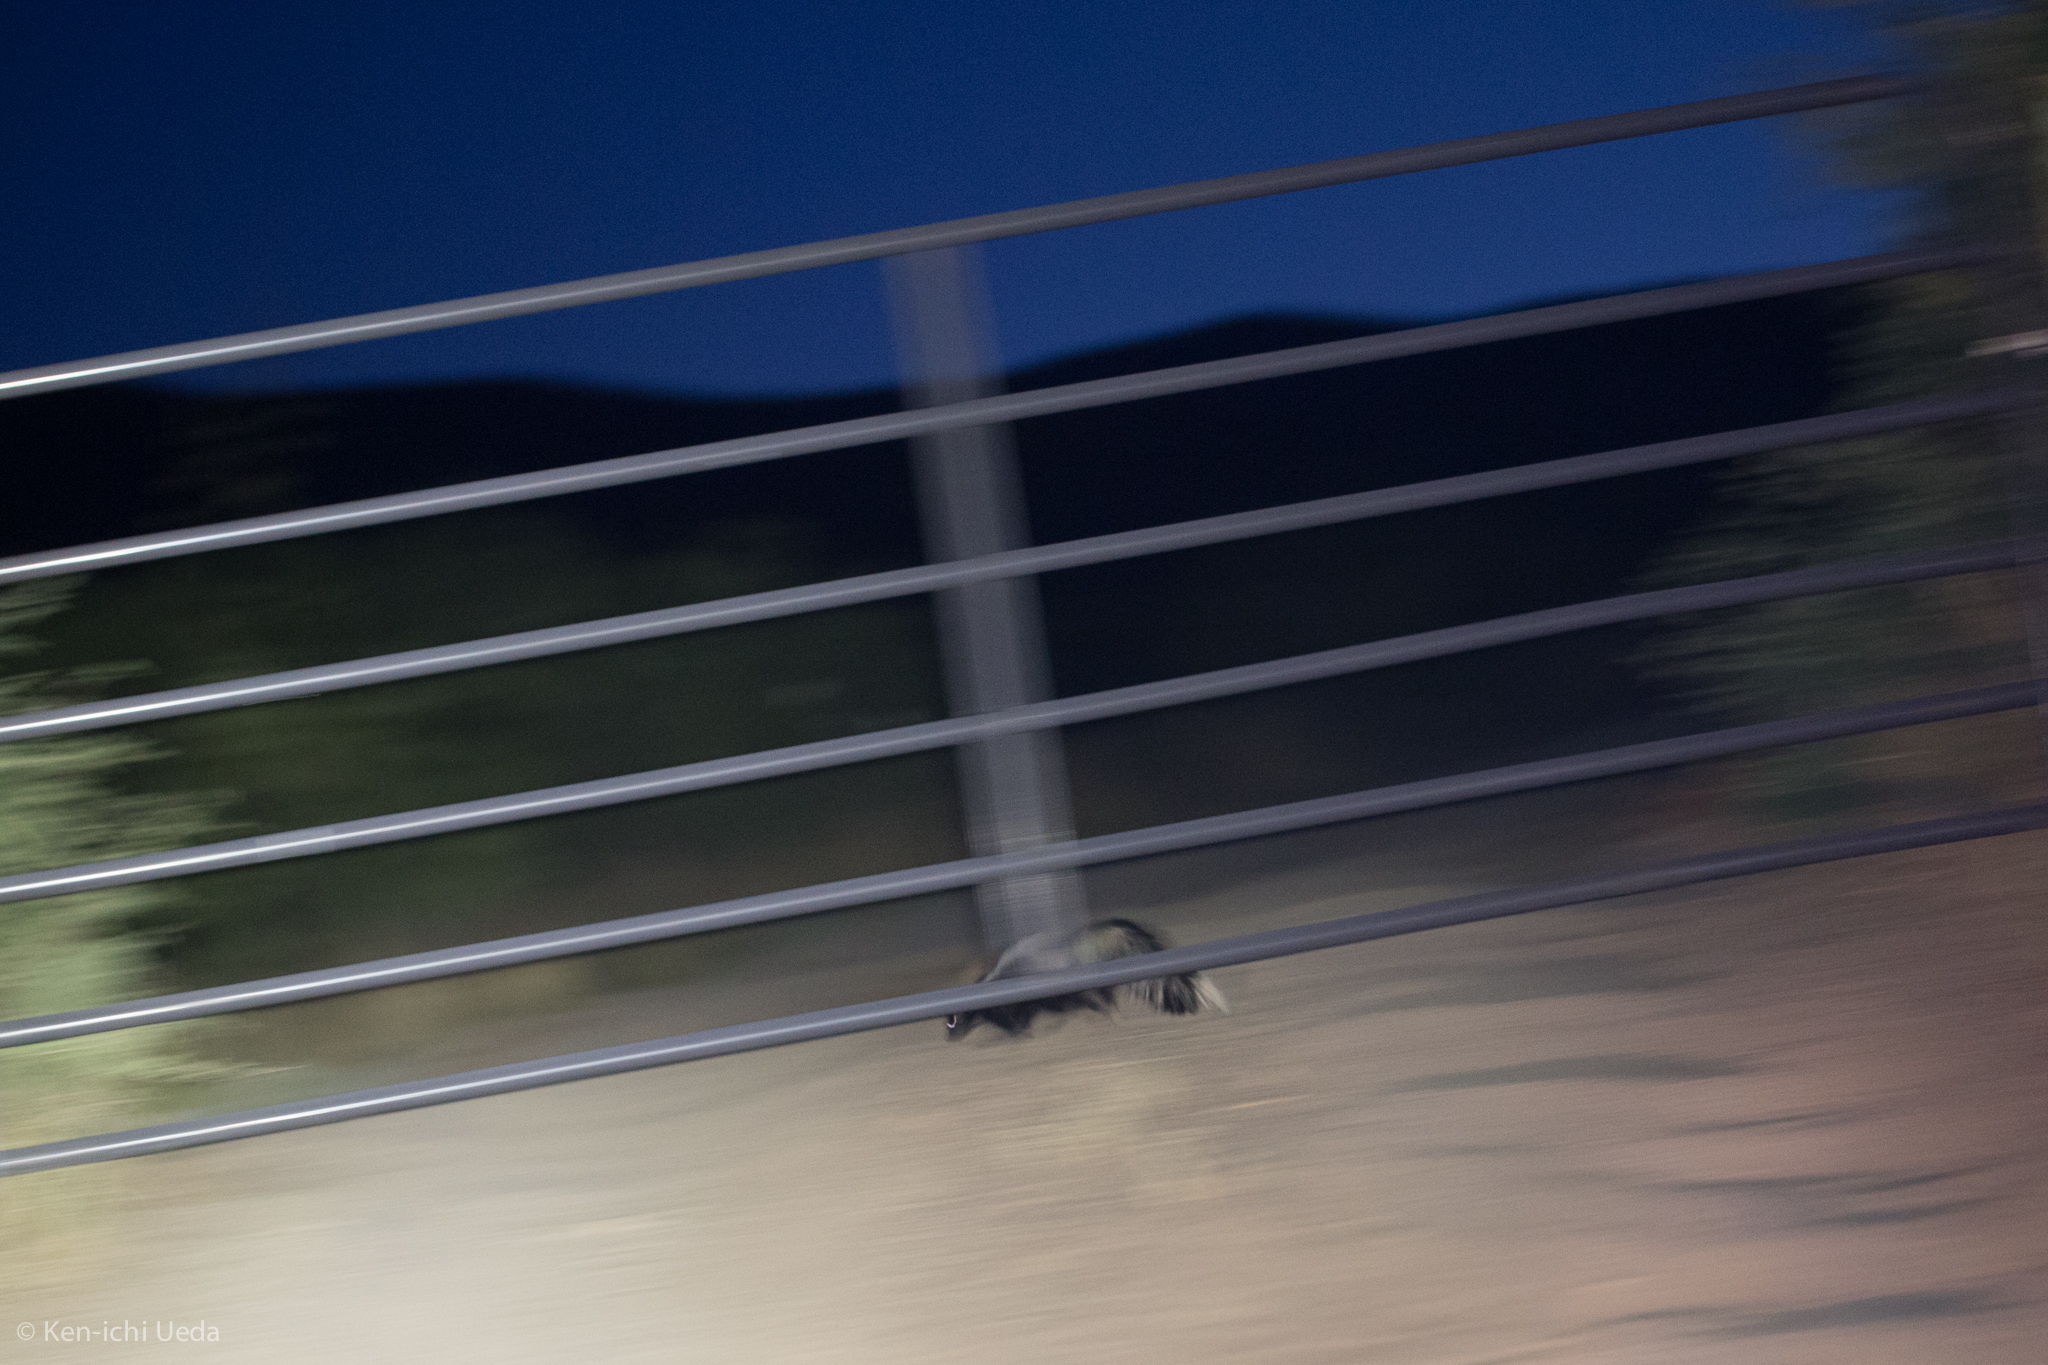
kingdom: Animalia
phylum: Chordata
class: Mammalia
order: Carnivora
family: Mephitidae
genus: Mephitis
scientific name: Mephitis mephitis
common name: Striped skunk
